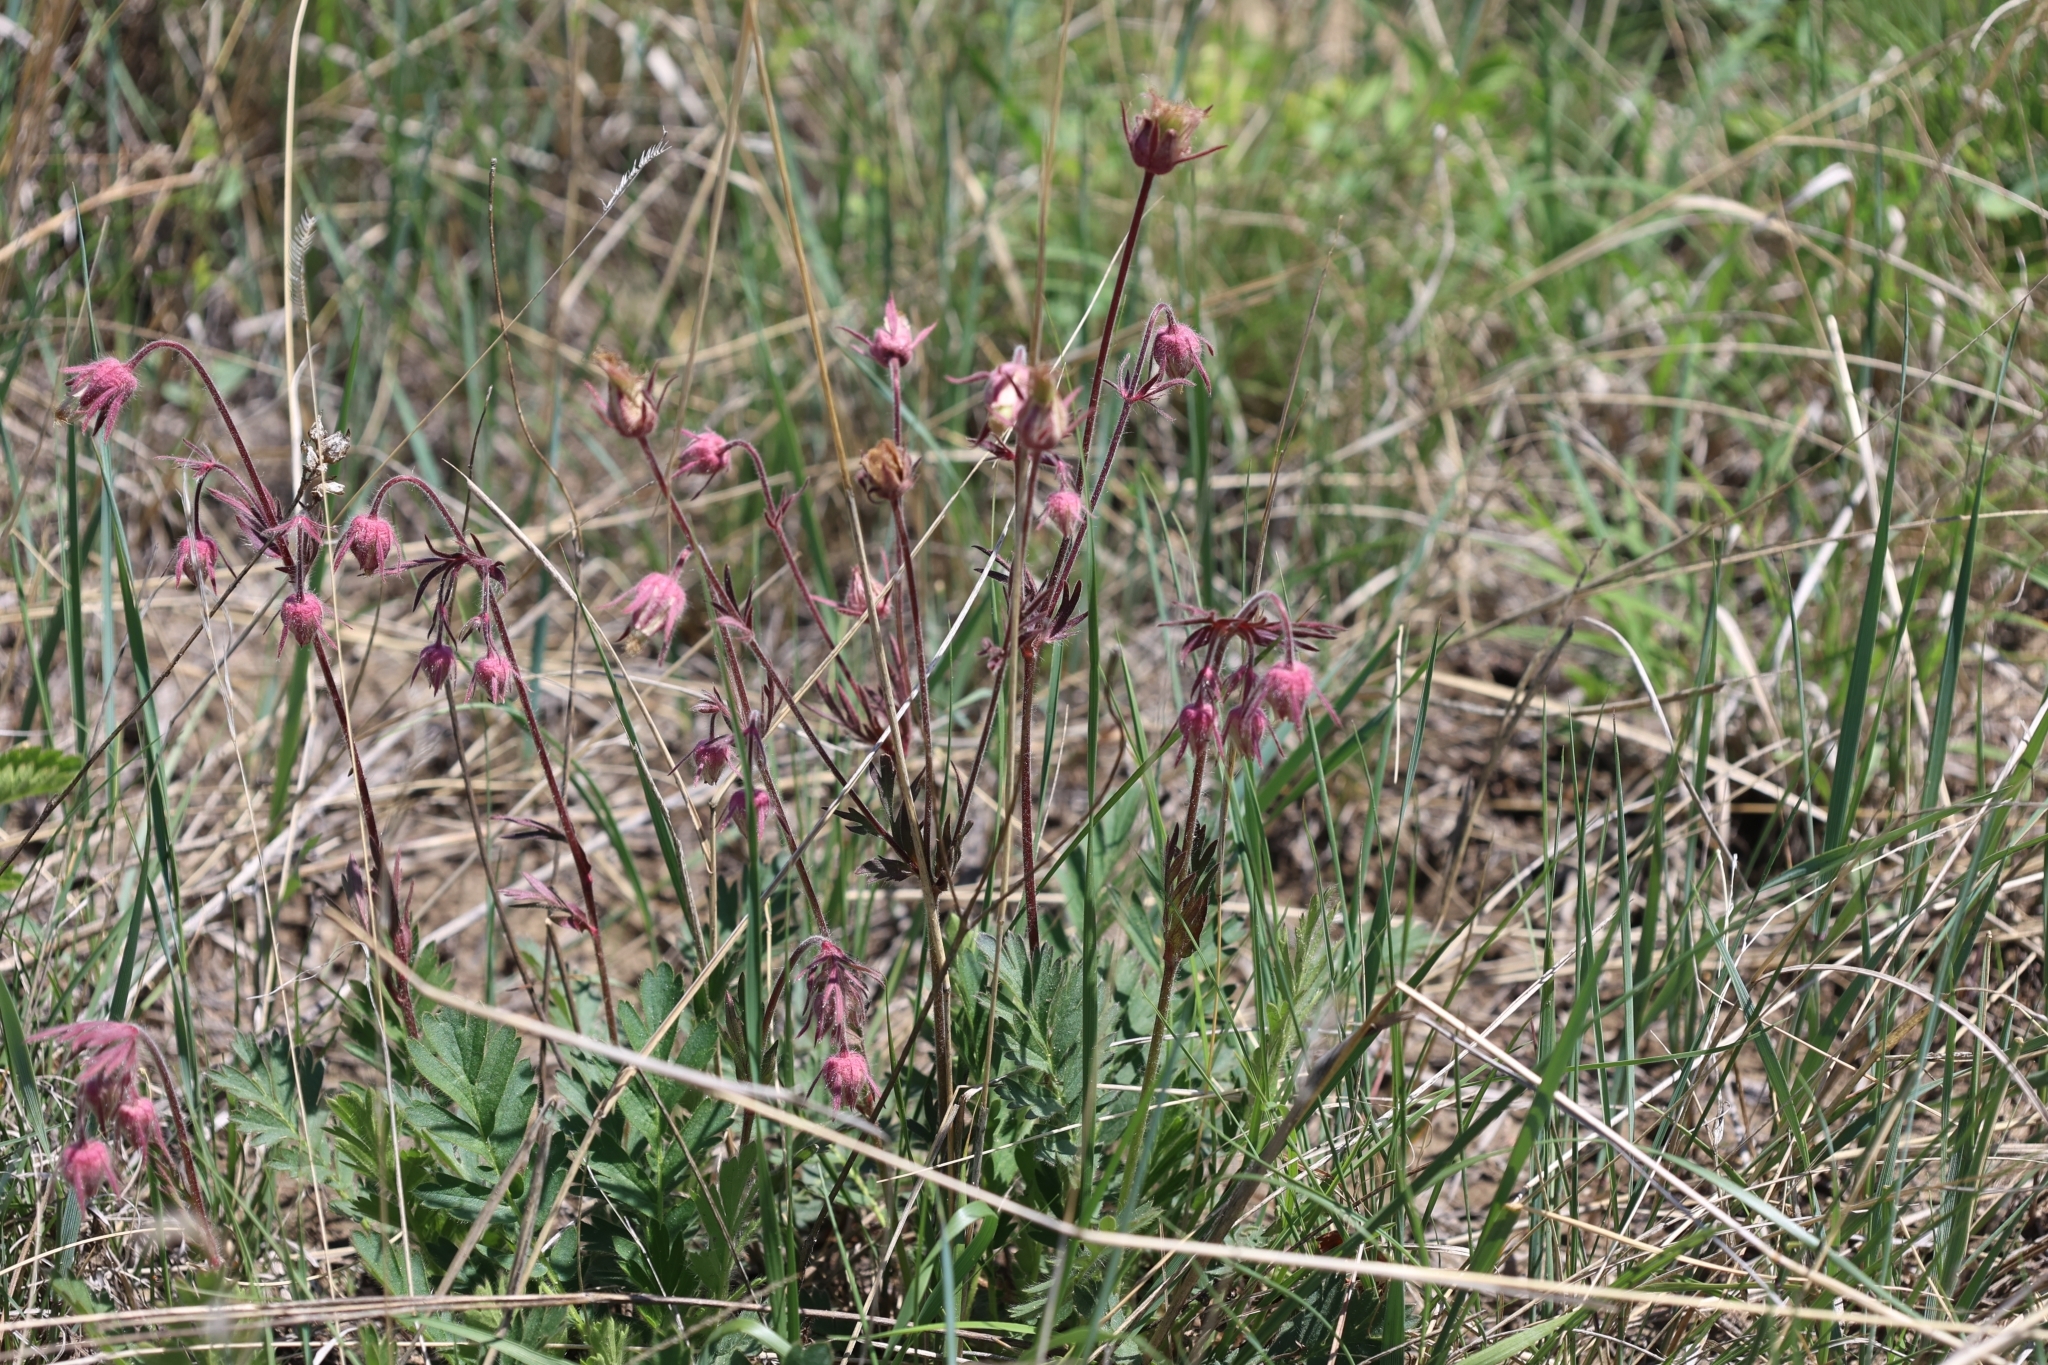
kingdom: Plantae
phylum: Tracheophyta
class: Magnoliopsida
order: Rosales
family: Rosaceae
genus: Geum
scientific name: Geum triflorum
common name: Old man's whiskers
